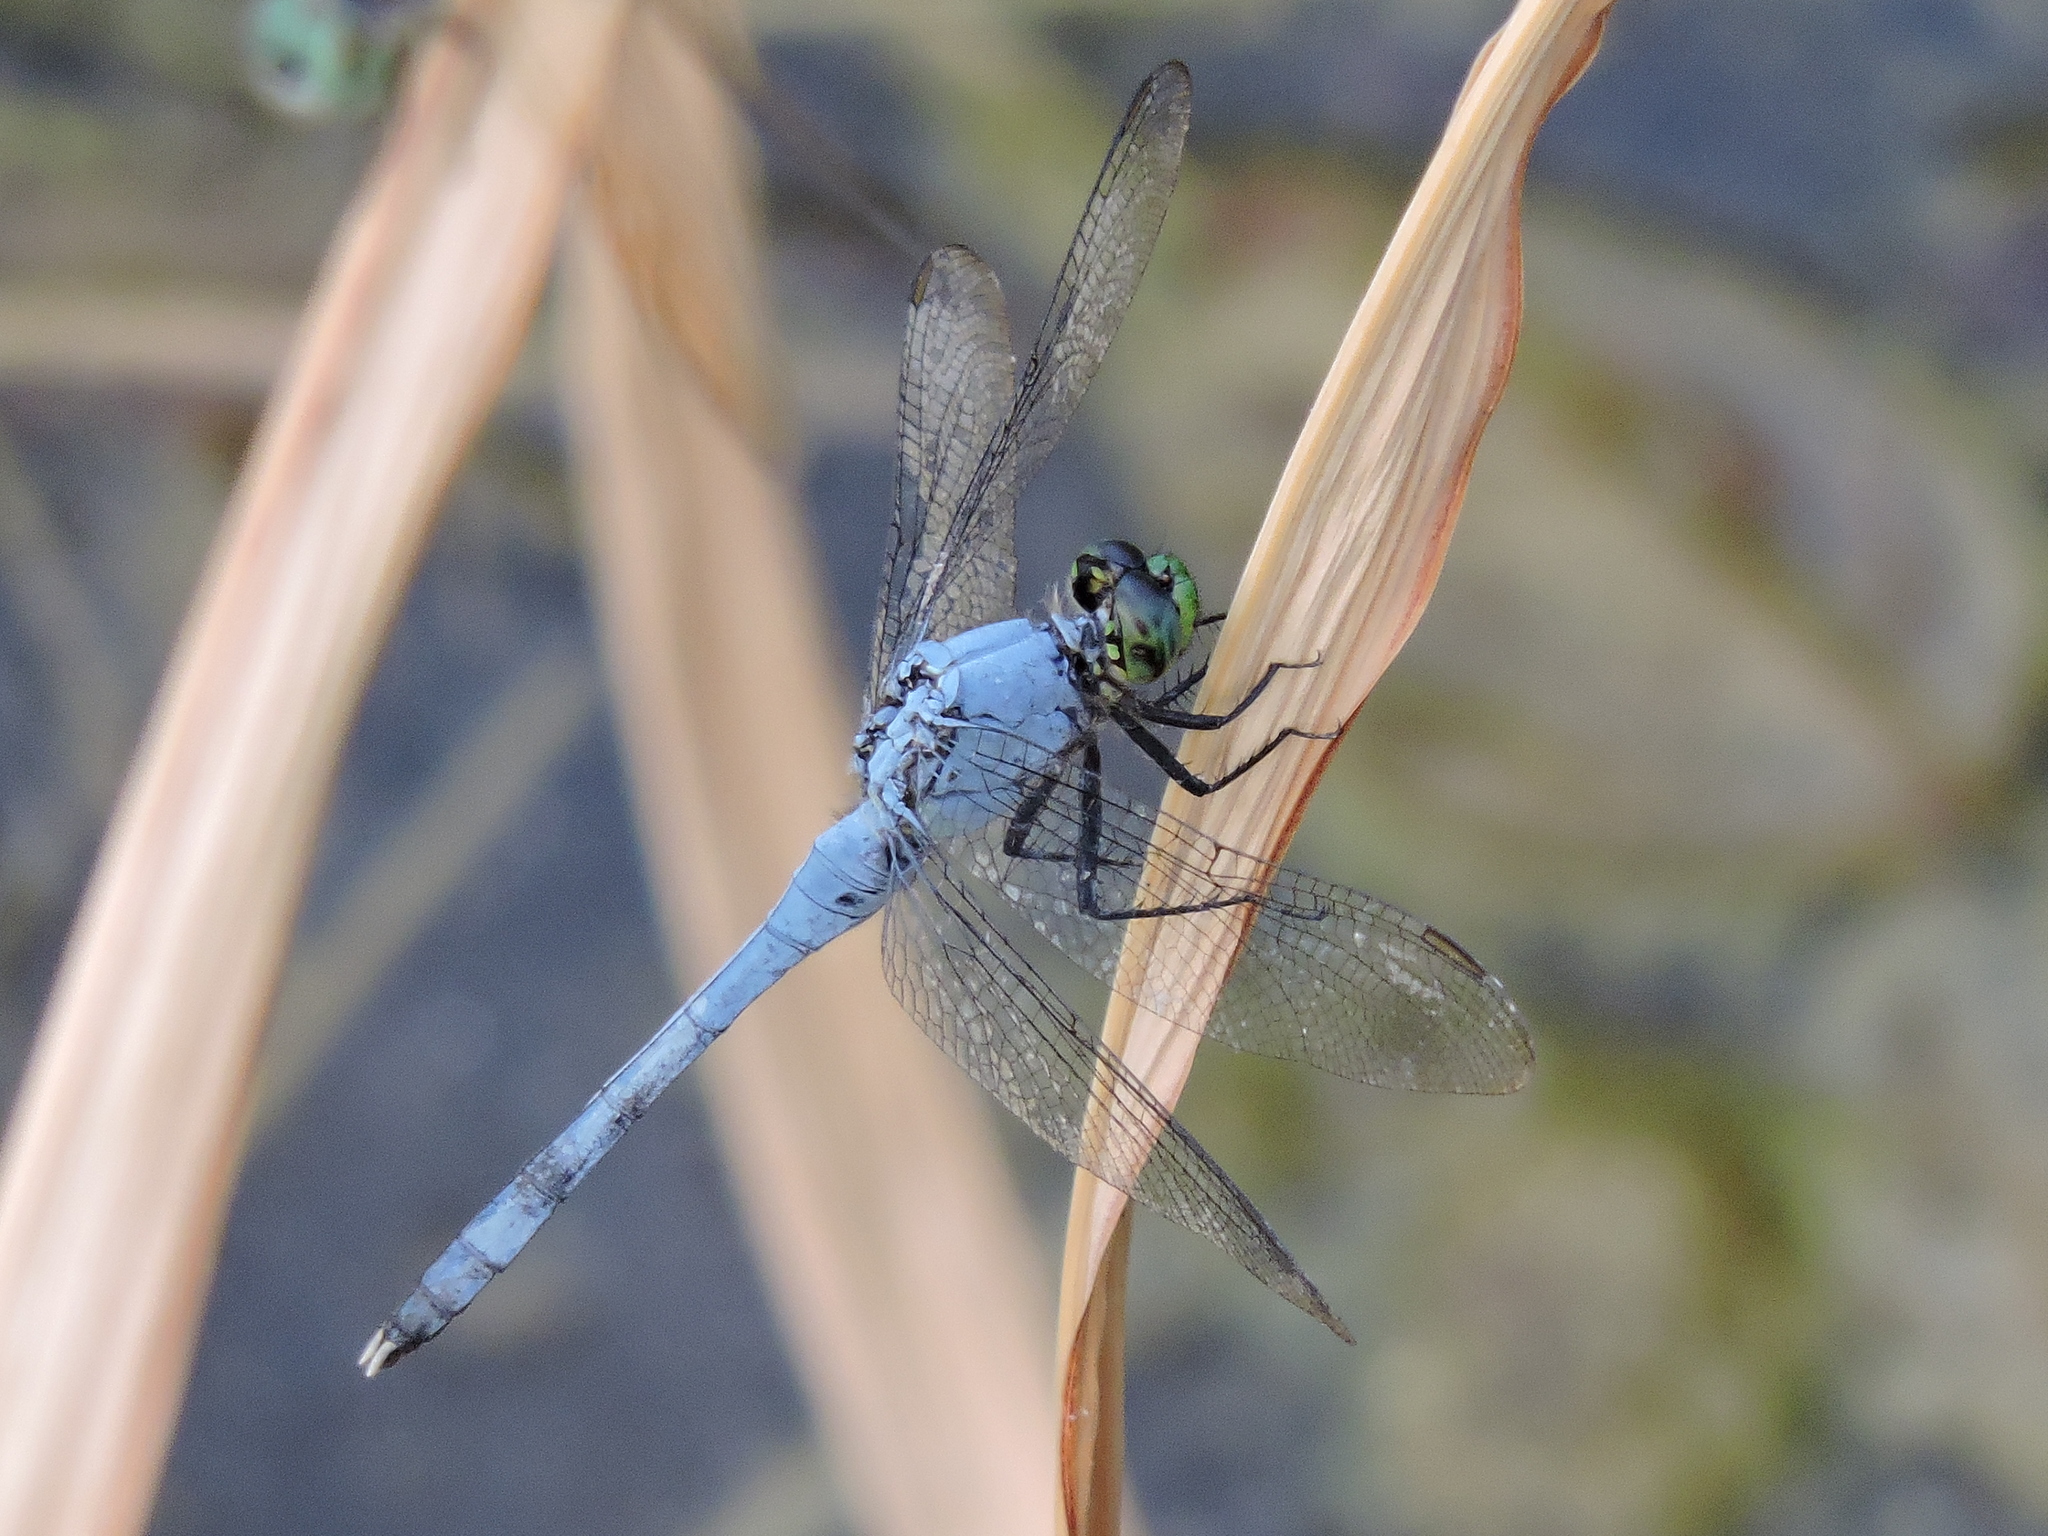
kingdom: Animalia
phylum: Arthropoda
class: Insecta
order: Odonata
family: Libellulidae
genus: Erythemis
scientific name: Erythemis simplicicollis
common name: Eastern pondhawk
